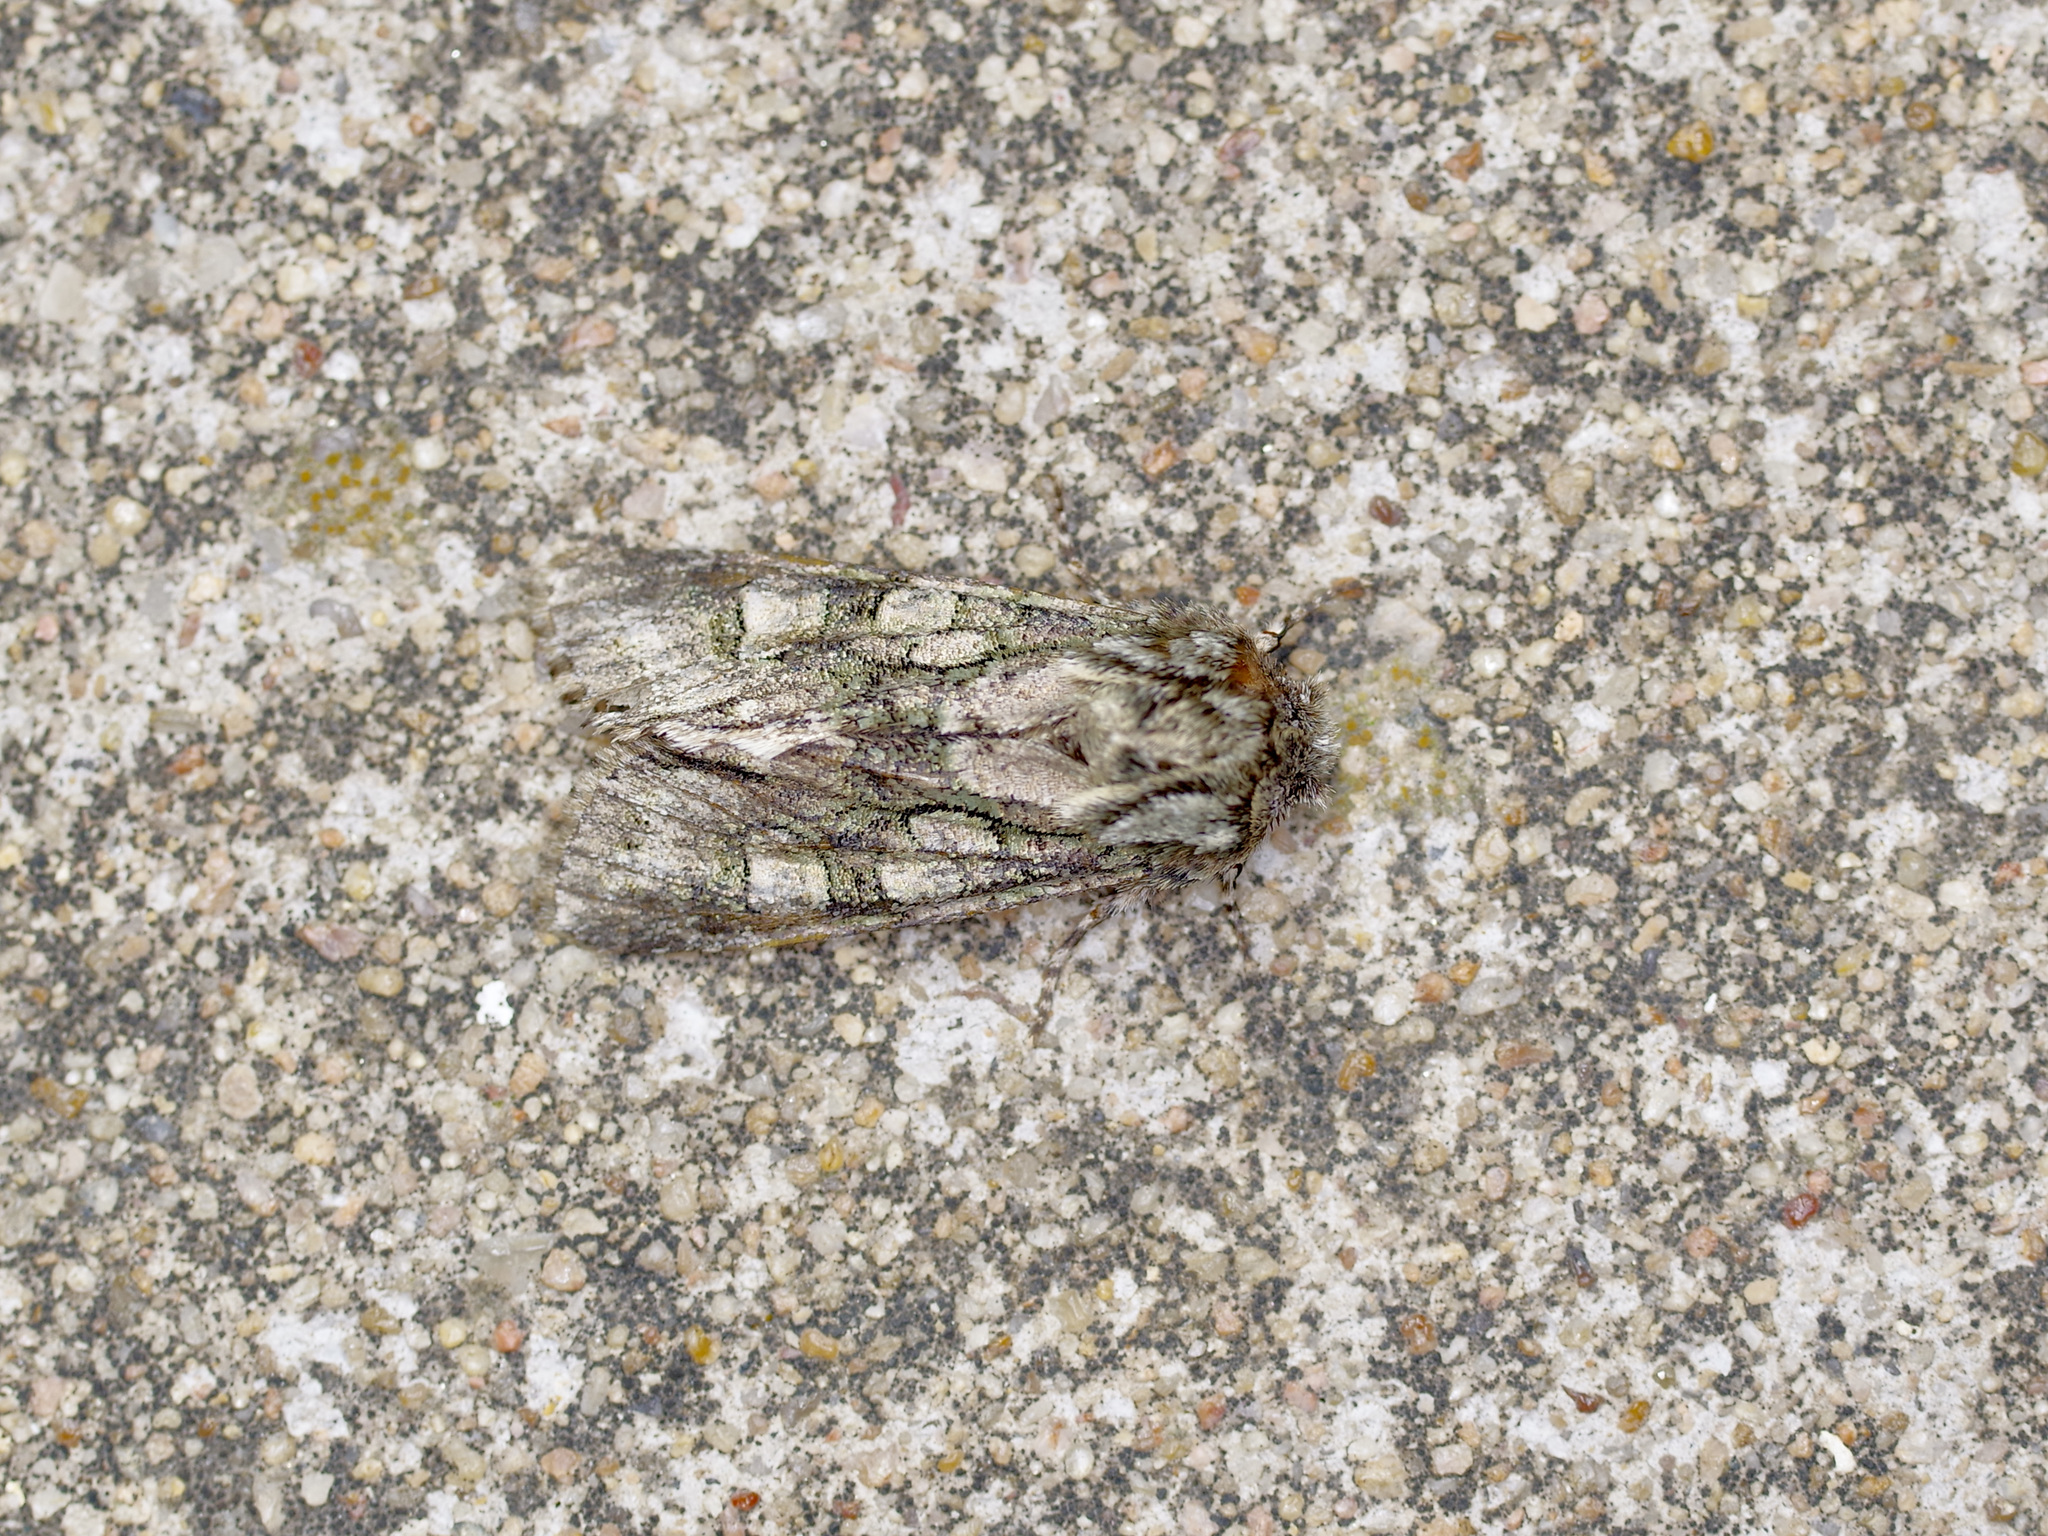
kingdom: Animalia
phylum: Arthropoda
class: Insecta
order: Lepidoptera
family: Noctuidae
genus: Psaphida
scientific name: Psaphida resumens
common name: Figure-eight sallow
